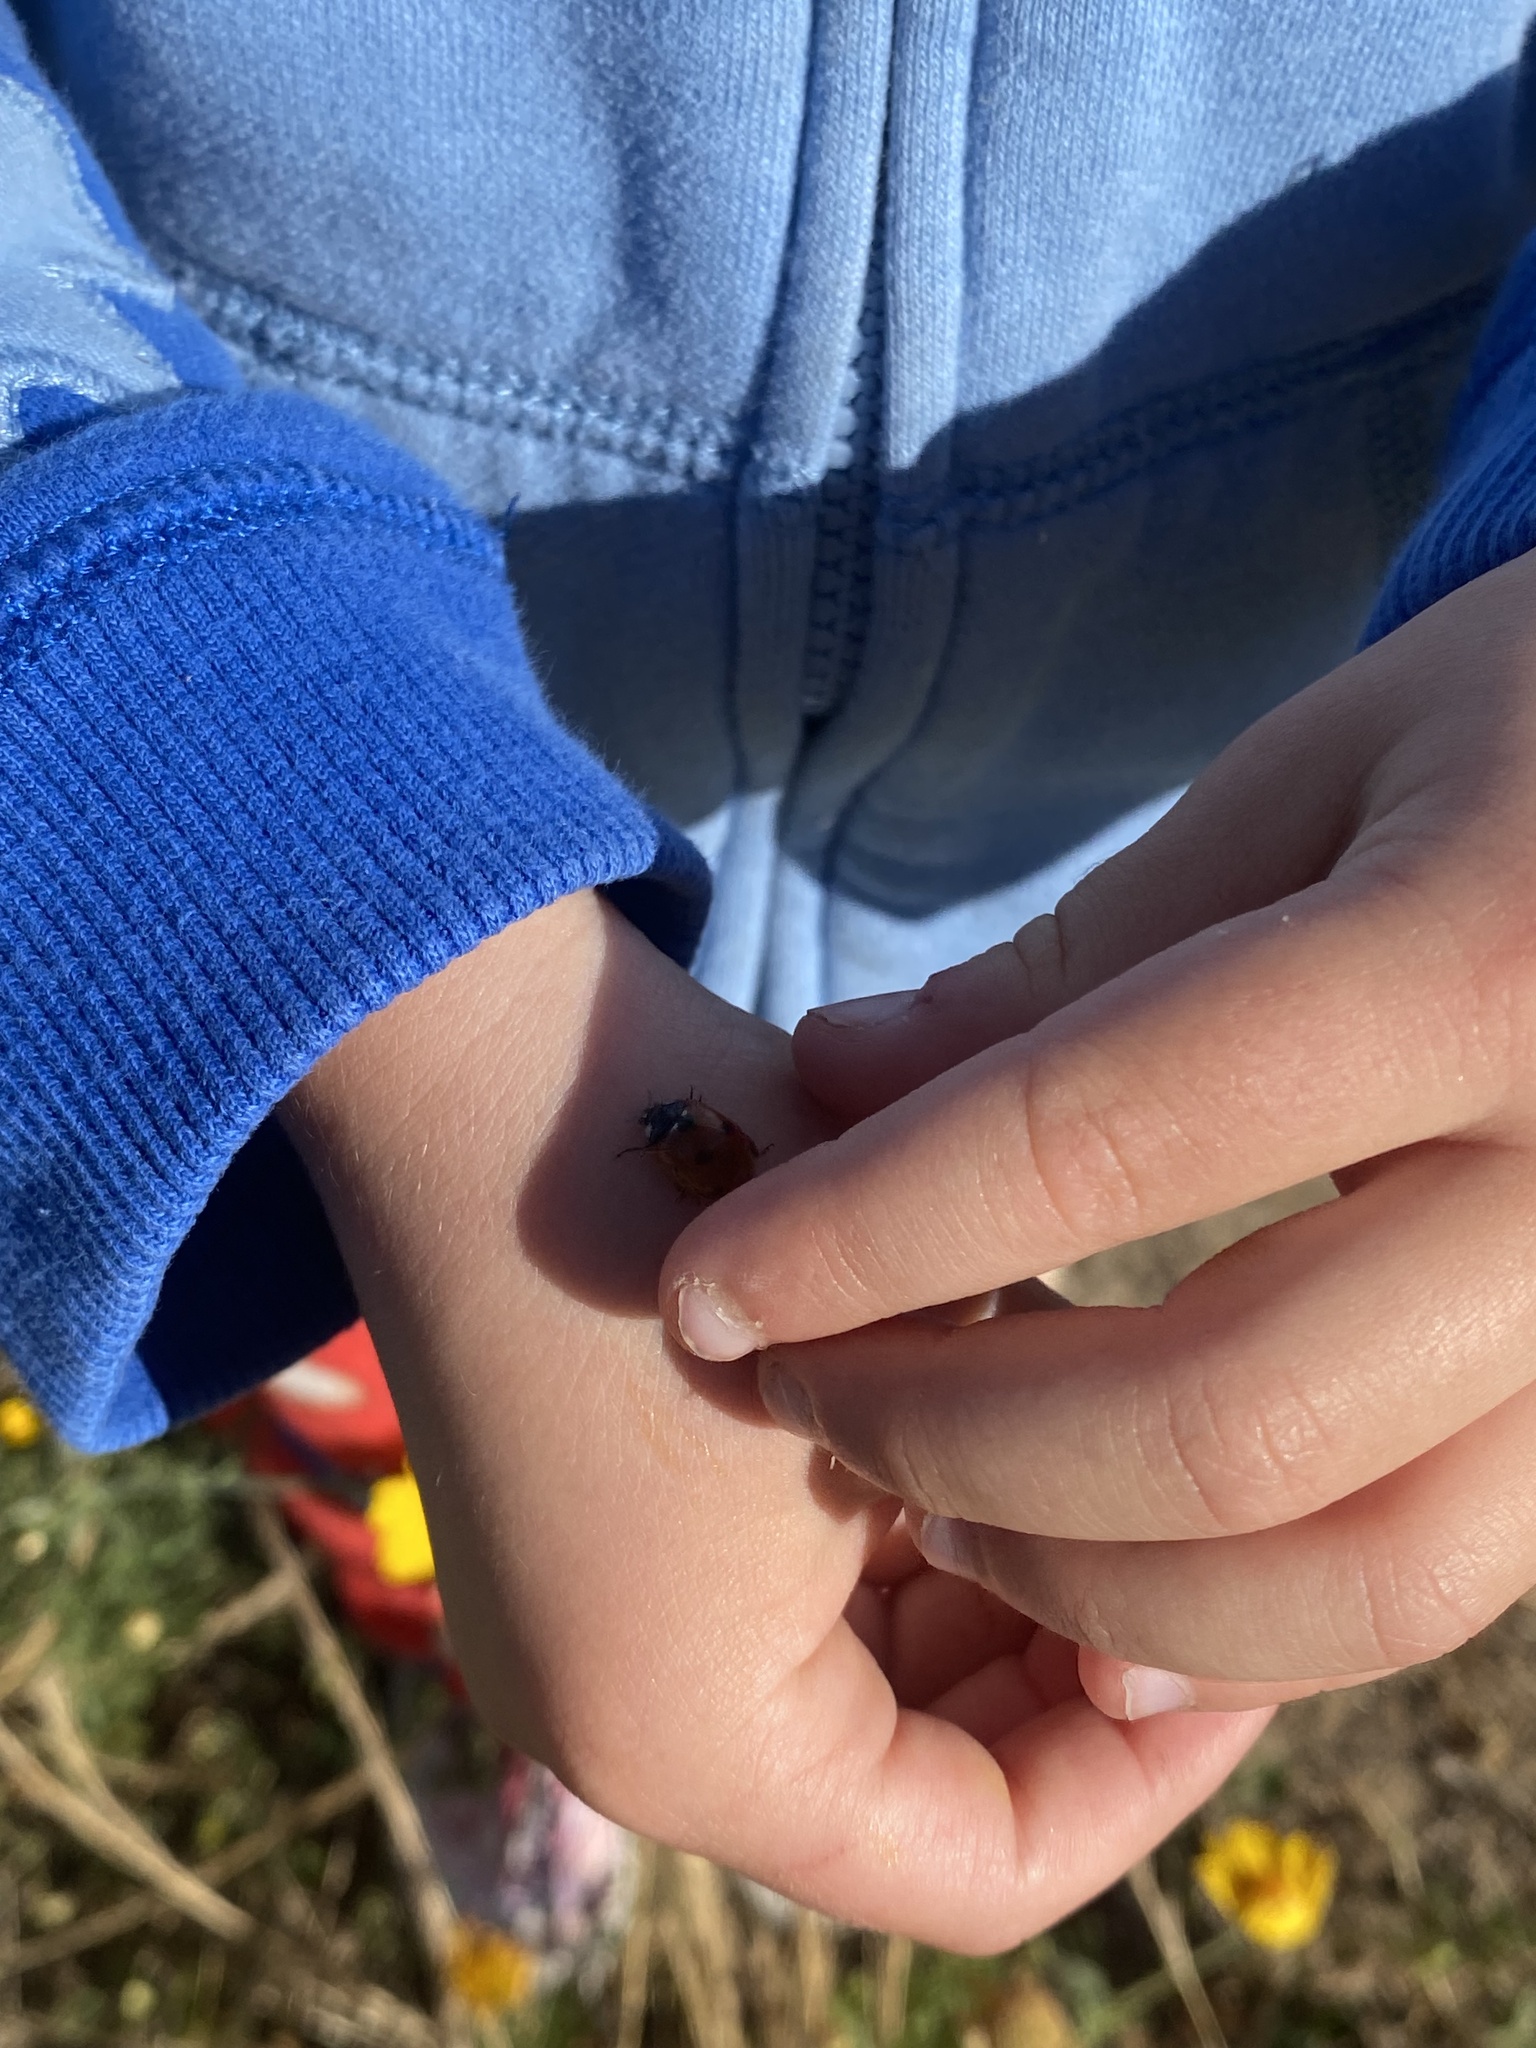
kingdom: Animalia
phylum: Arthropoda
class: Insecta
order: Coleoptera
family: Coccinellidae
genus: Coccinella
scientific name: Coccinella septempunctata
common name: Sevenspotted lady beetle
